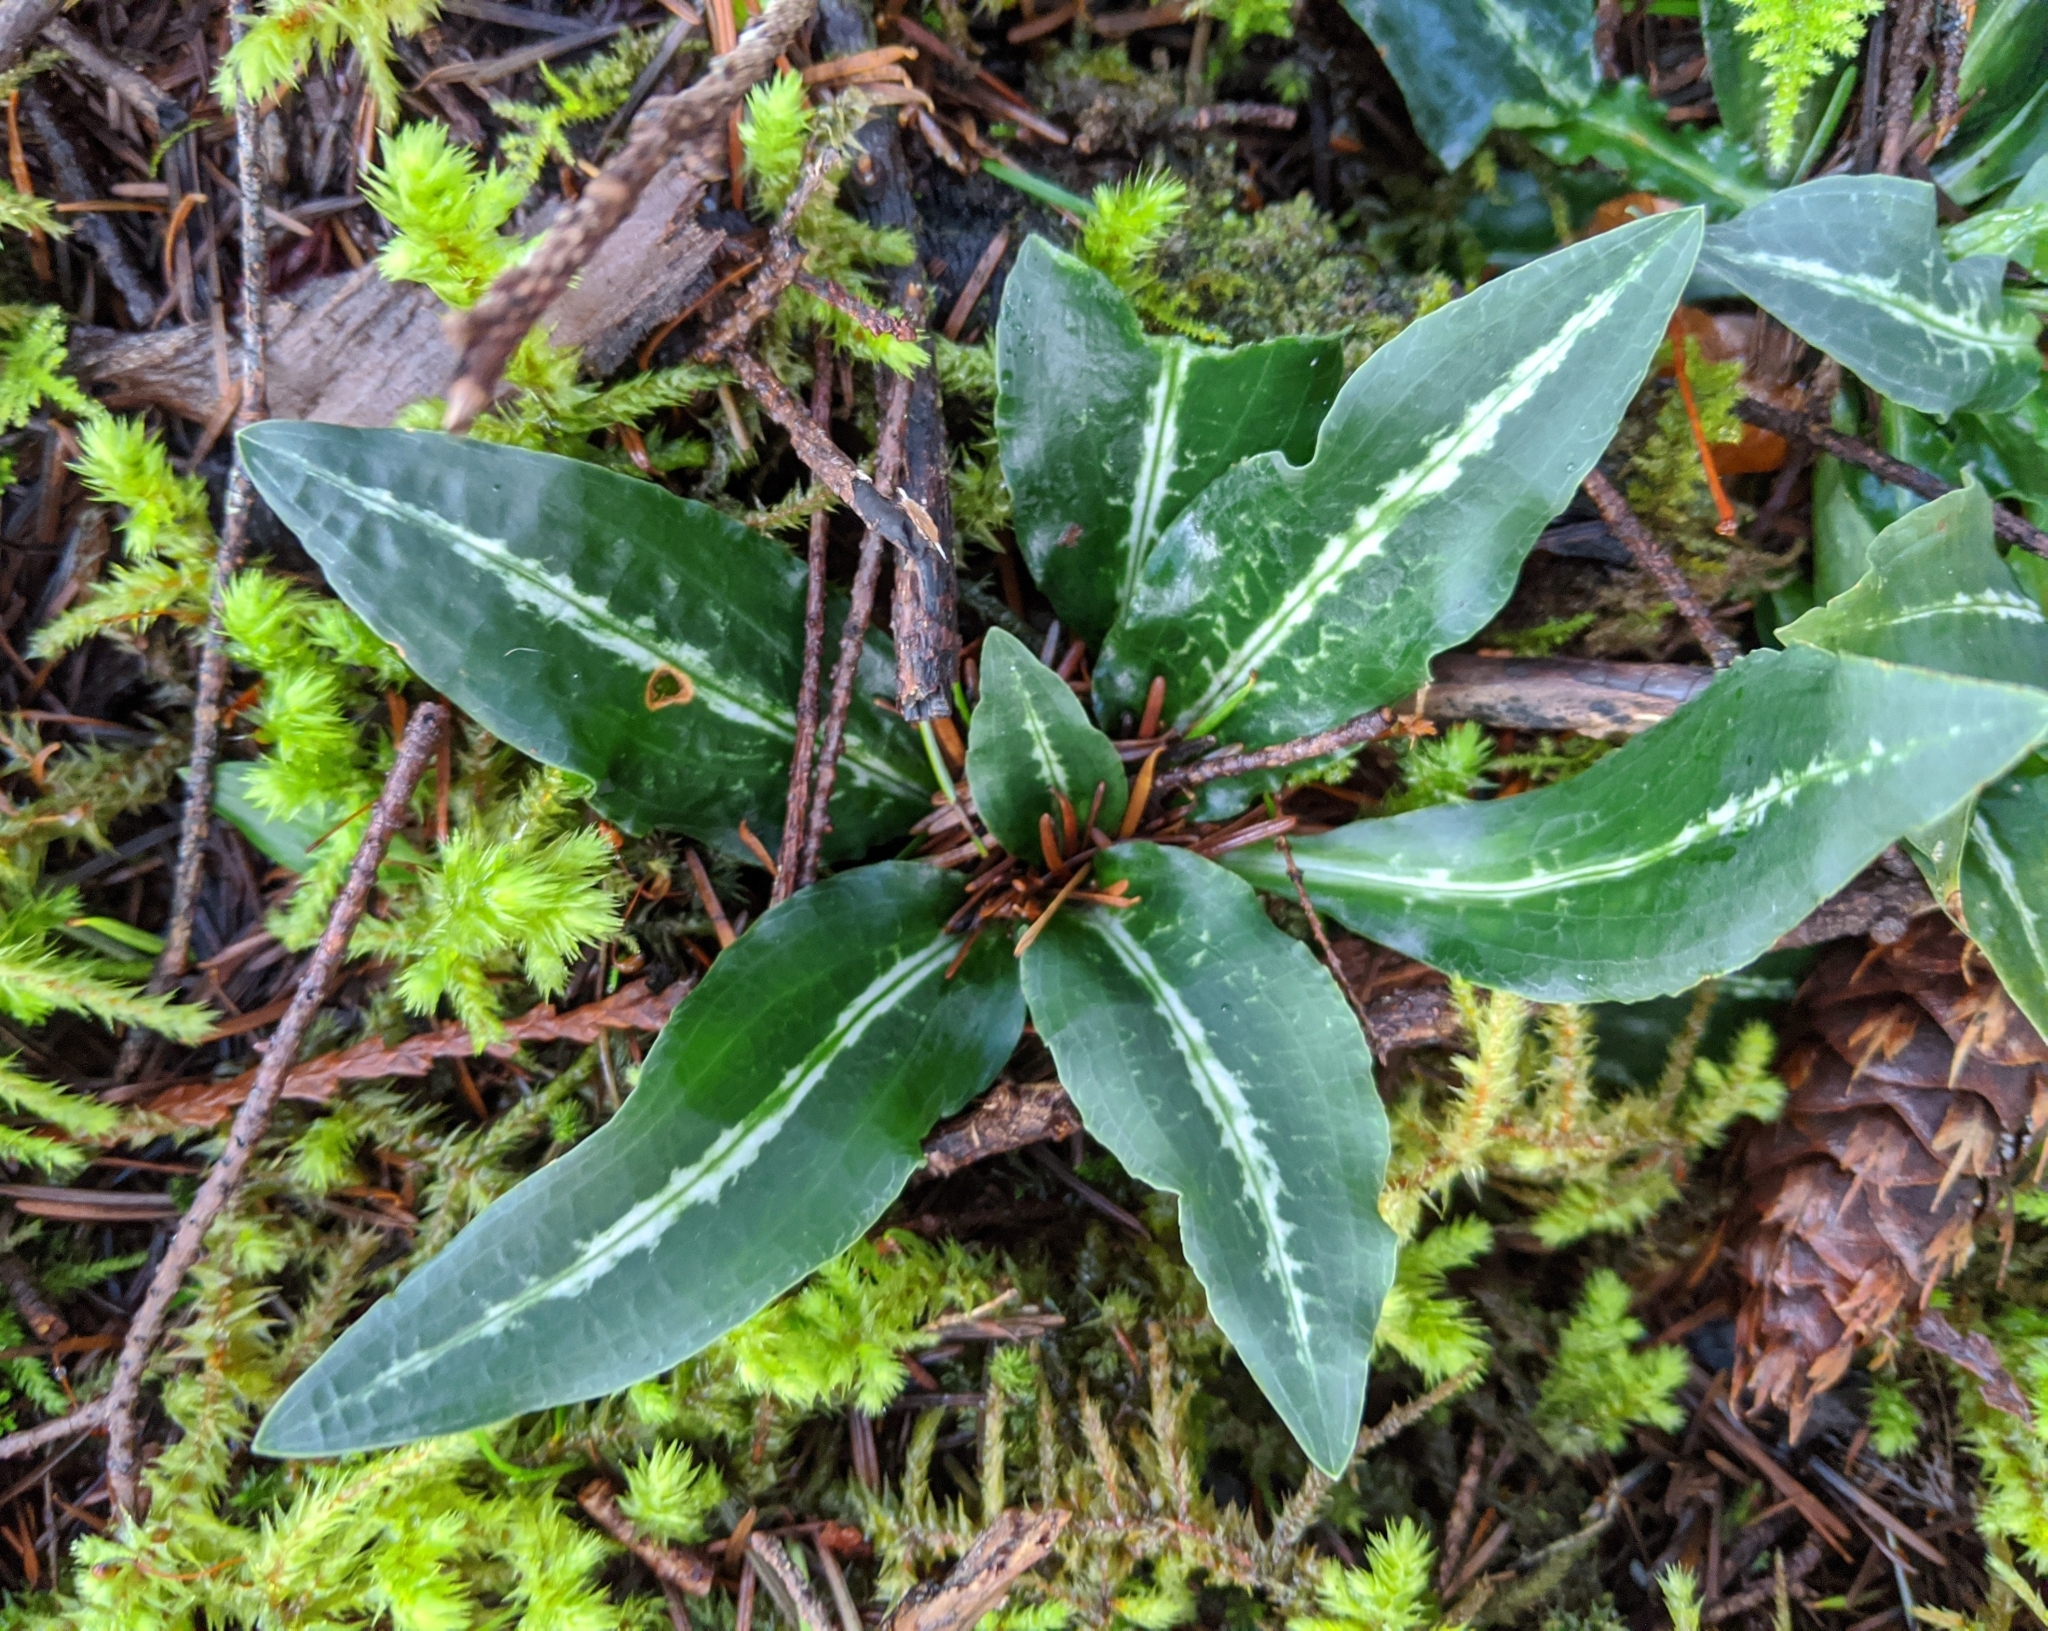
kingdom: Plantae
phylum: Tracheophyta
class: Liliopsida
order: Asparagales
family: Orchidaceae
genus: Goodyera
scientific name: Goodyera oblongifolia
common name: Giant rattlesnake-plantain
